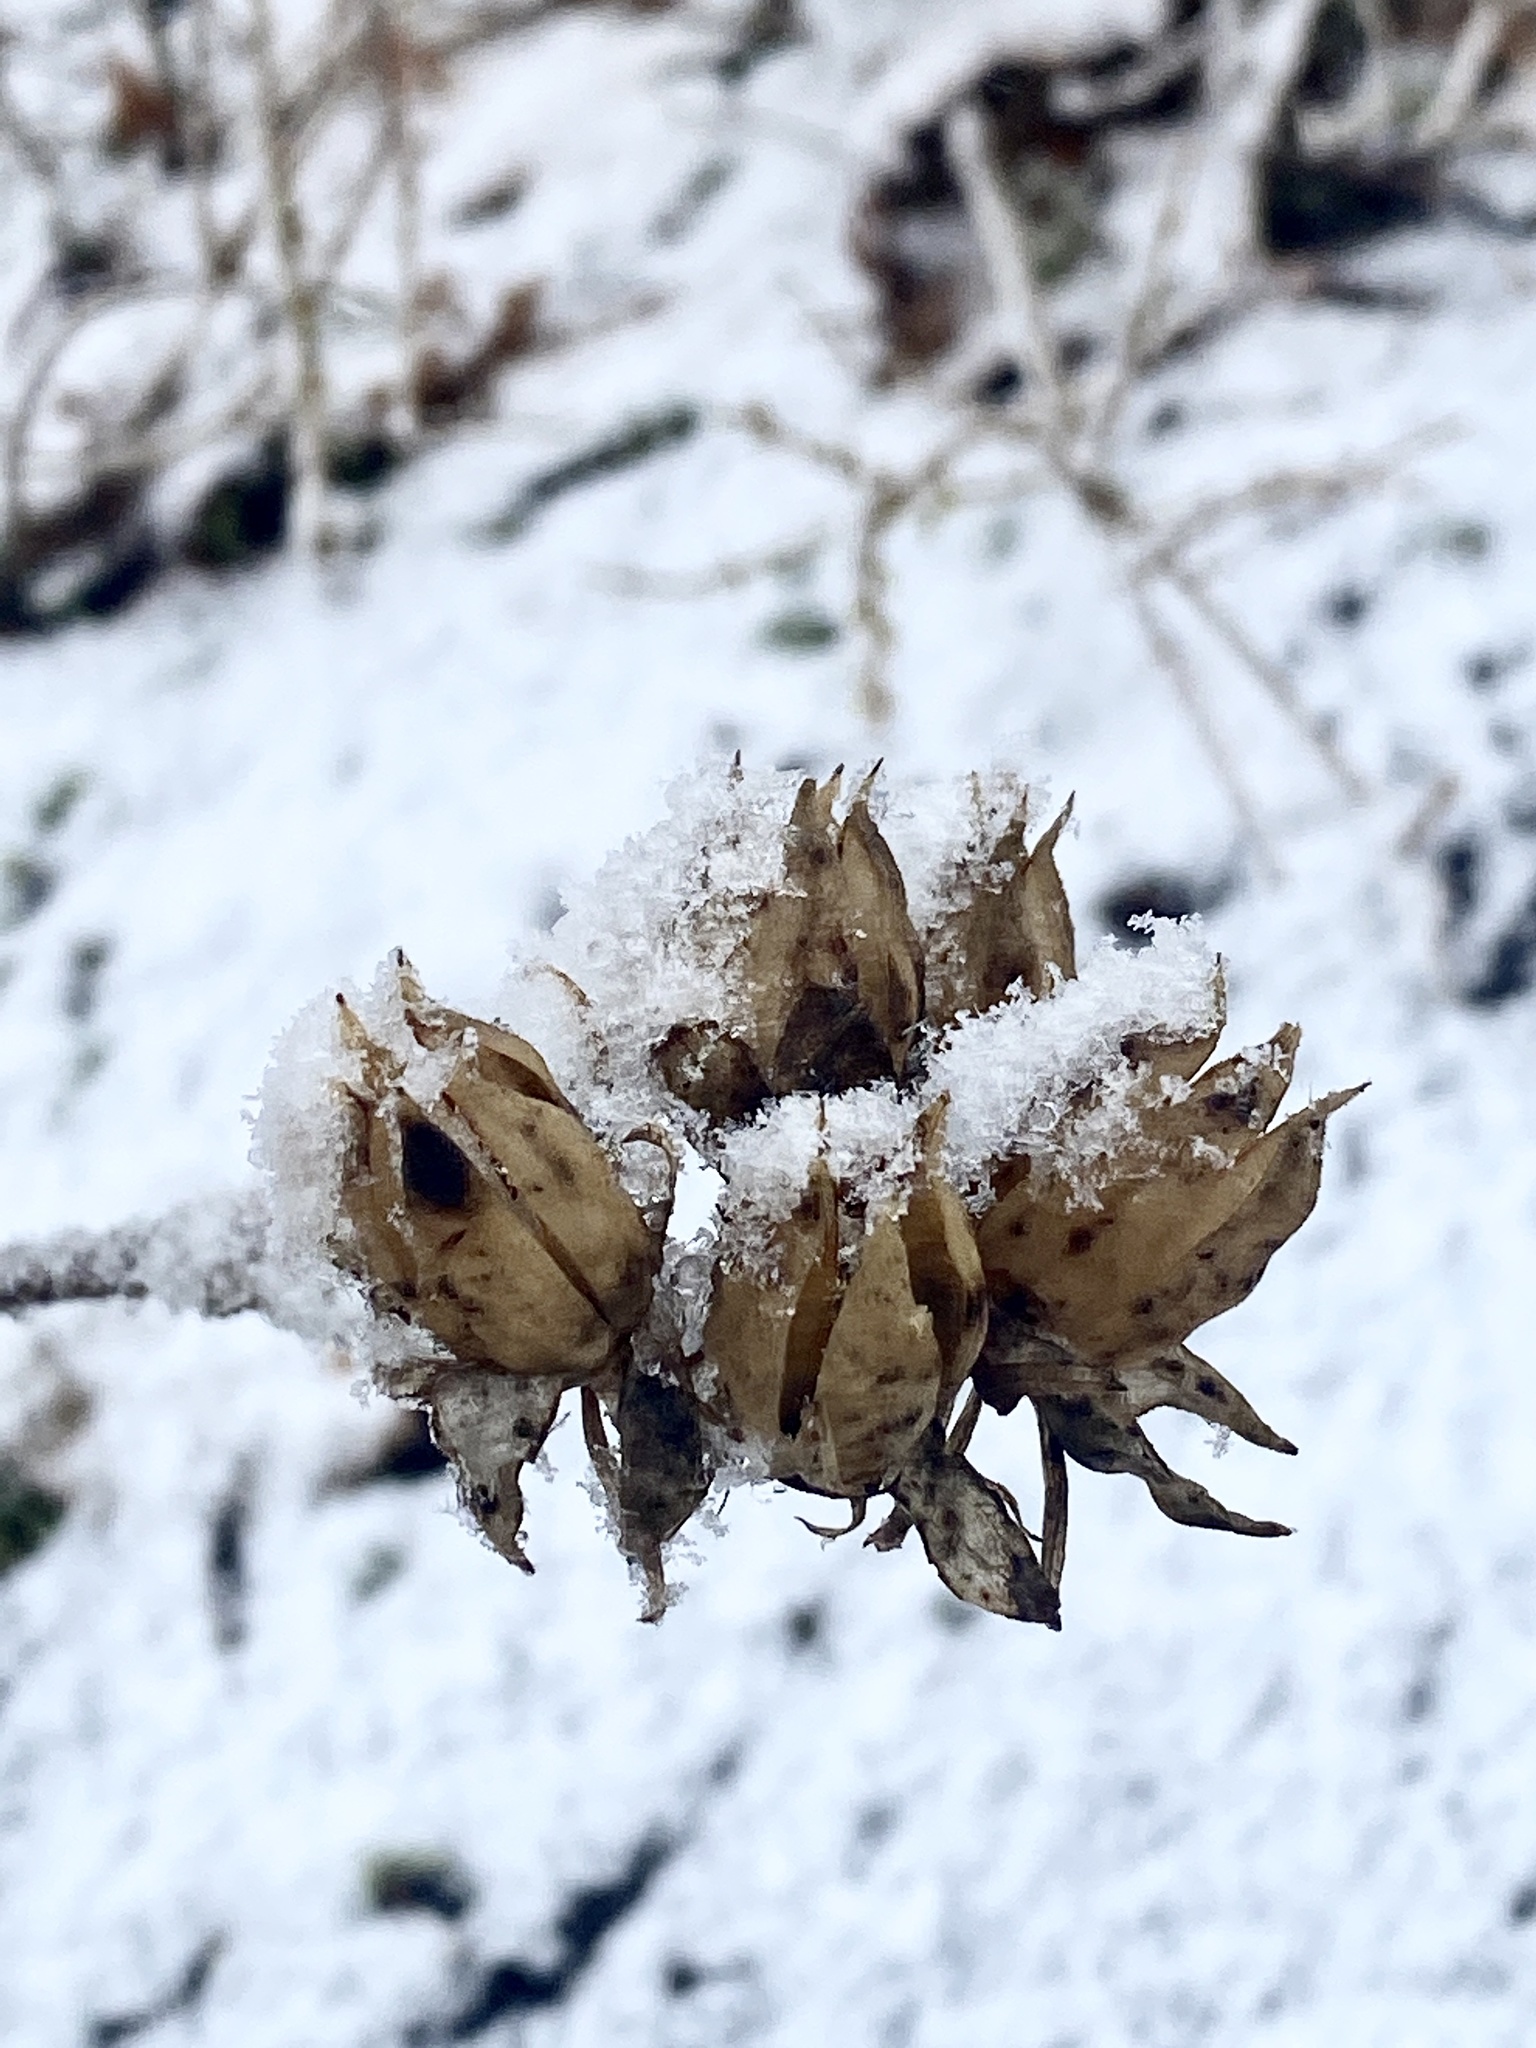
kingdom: Plantae
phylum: Tracheophyta
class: Magnoliopsida
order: Malvales
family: Malvaceae
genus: Hibiscus
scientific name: Hibiscus syriacus
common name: Syrian ketmia
